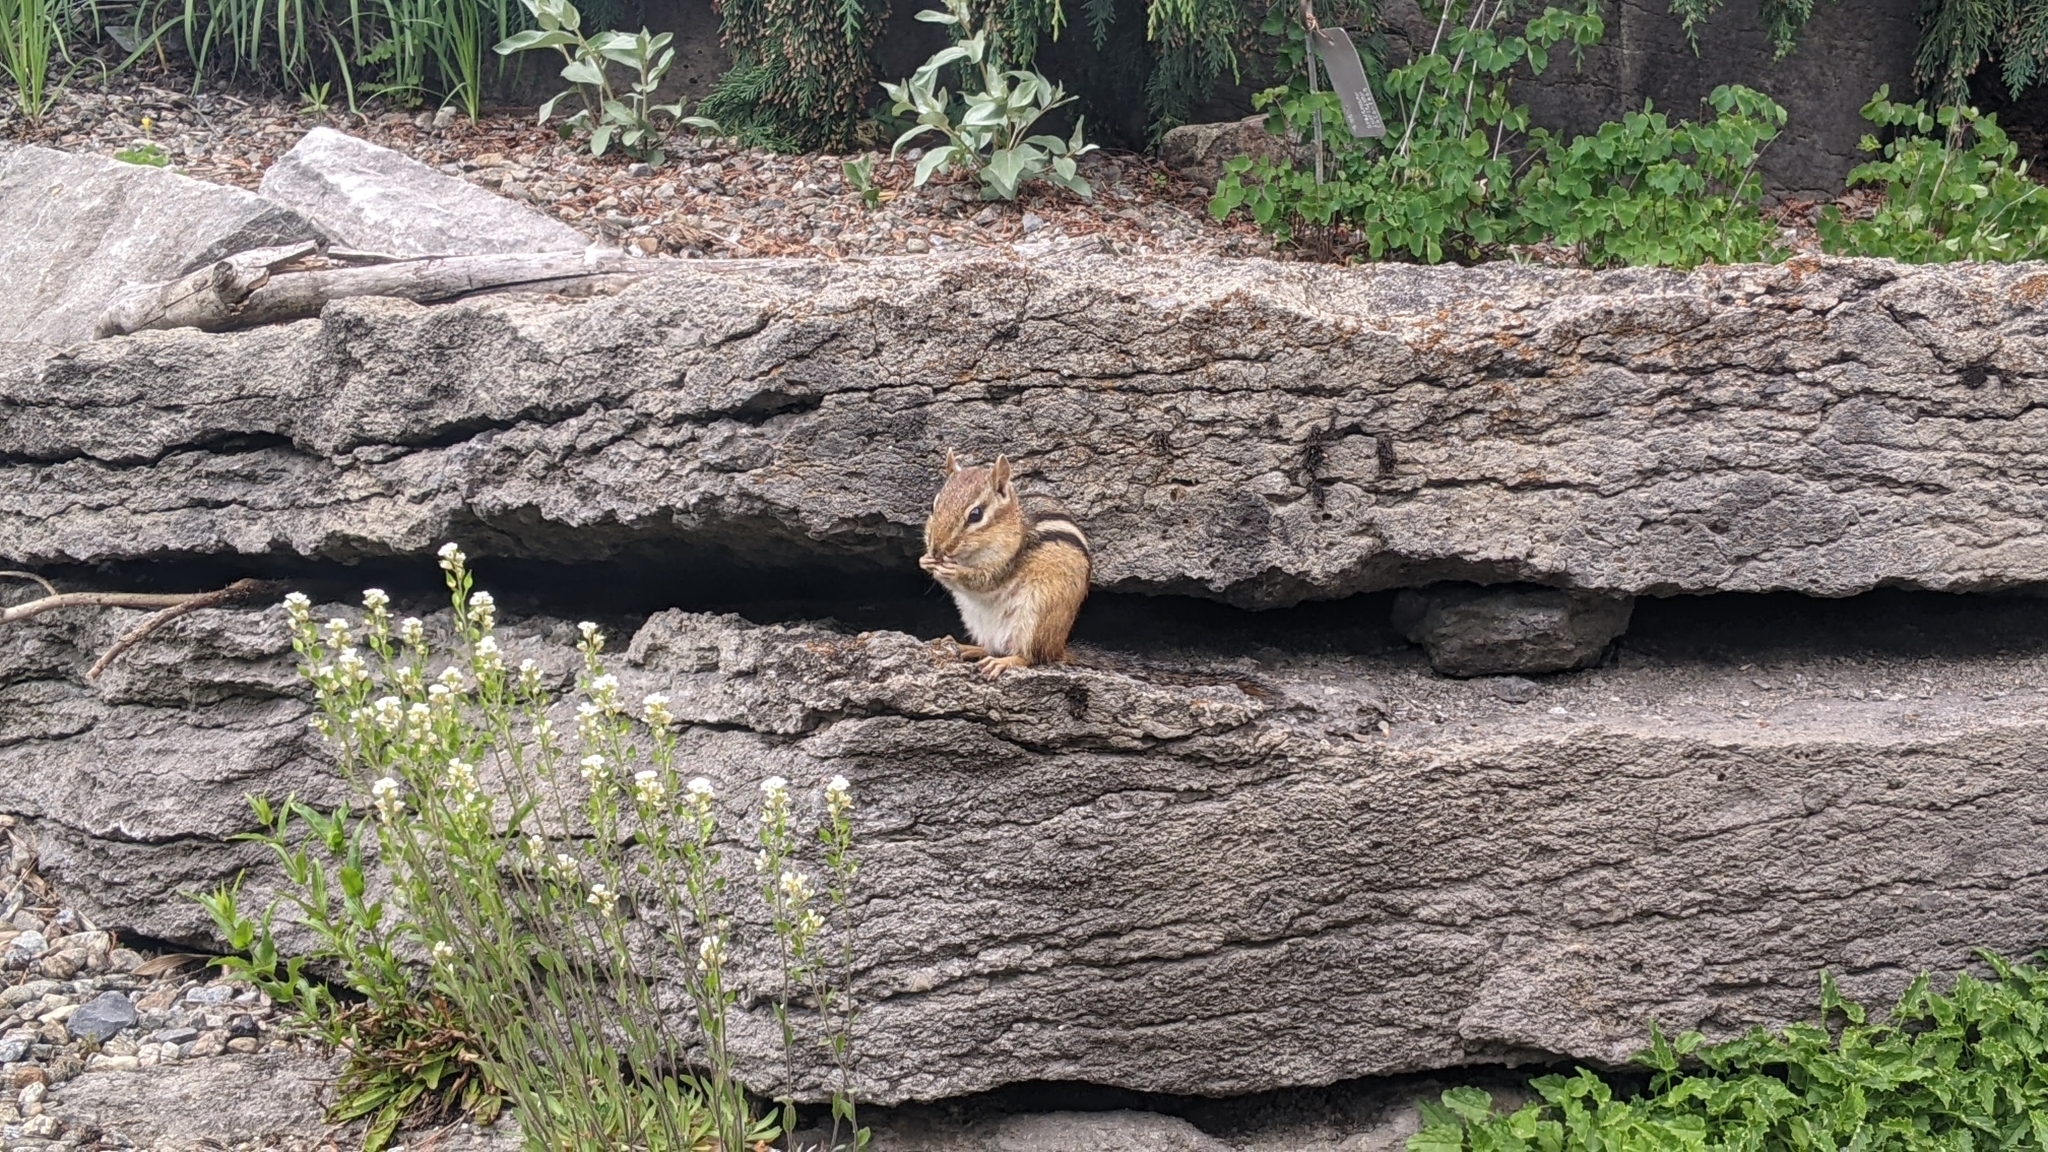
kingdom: Animalia
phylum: Chordata
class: Mammalia
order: Rodentia
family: Sciuridae
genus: Tamias
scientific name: Tamias striatus
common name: Eastern chipmunk
